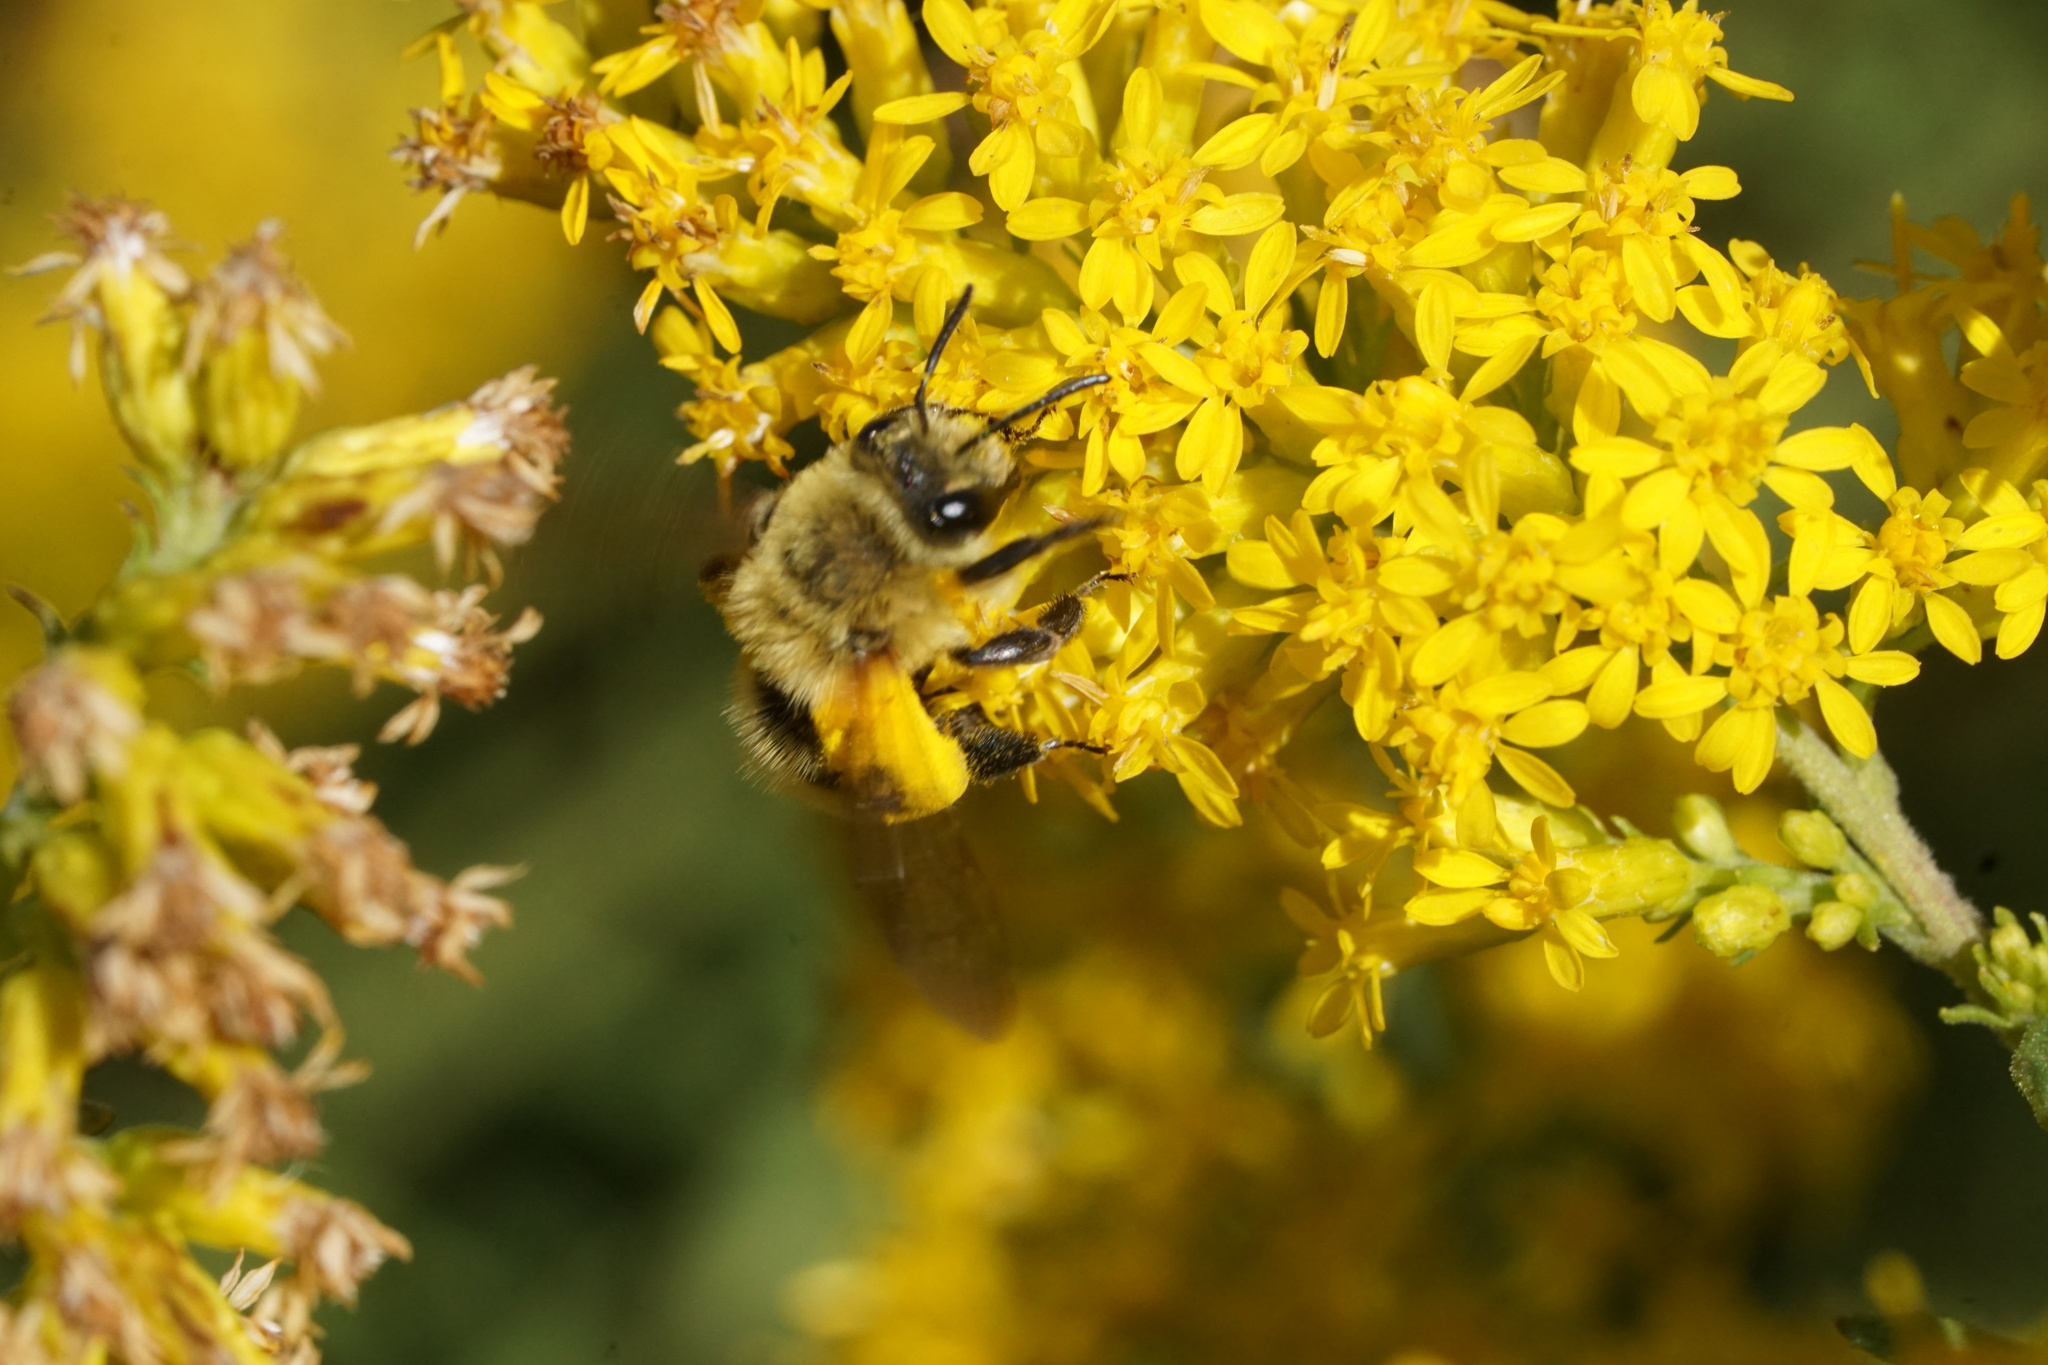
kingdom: Animalia
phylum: Arthropoda
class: Insecta
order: Hymenoptera
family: Andrenidae
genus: Andrena
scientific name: Andrena hirticincta
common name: Hairy-banded mining bee
